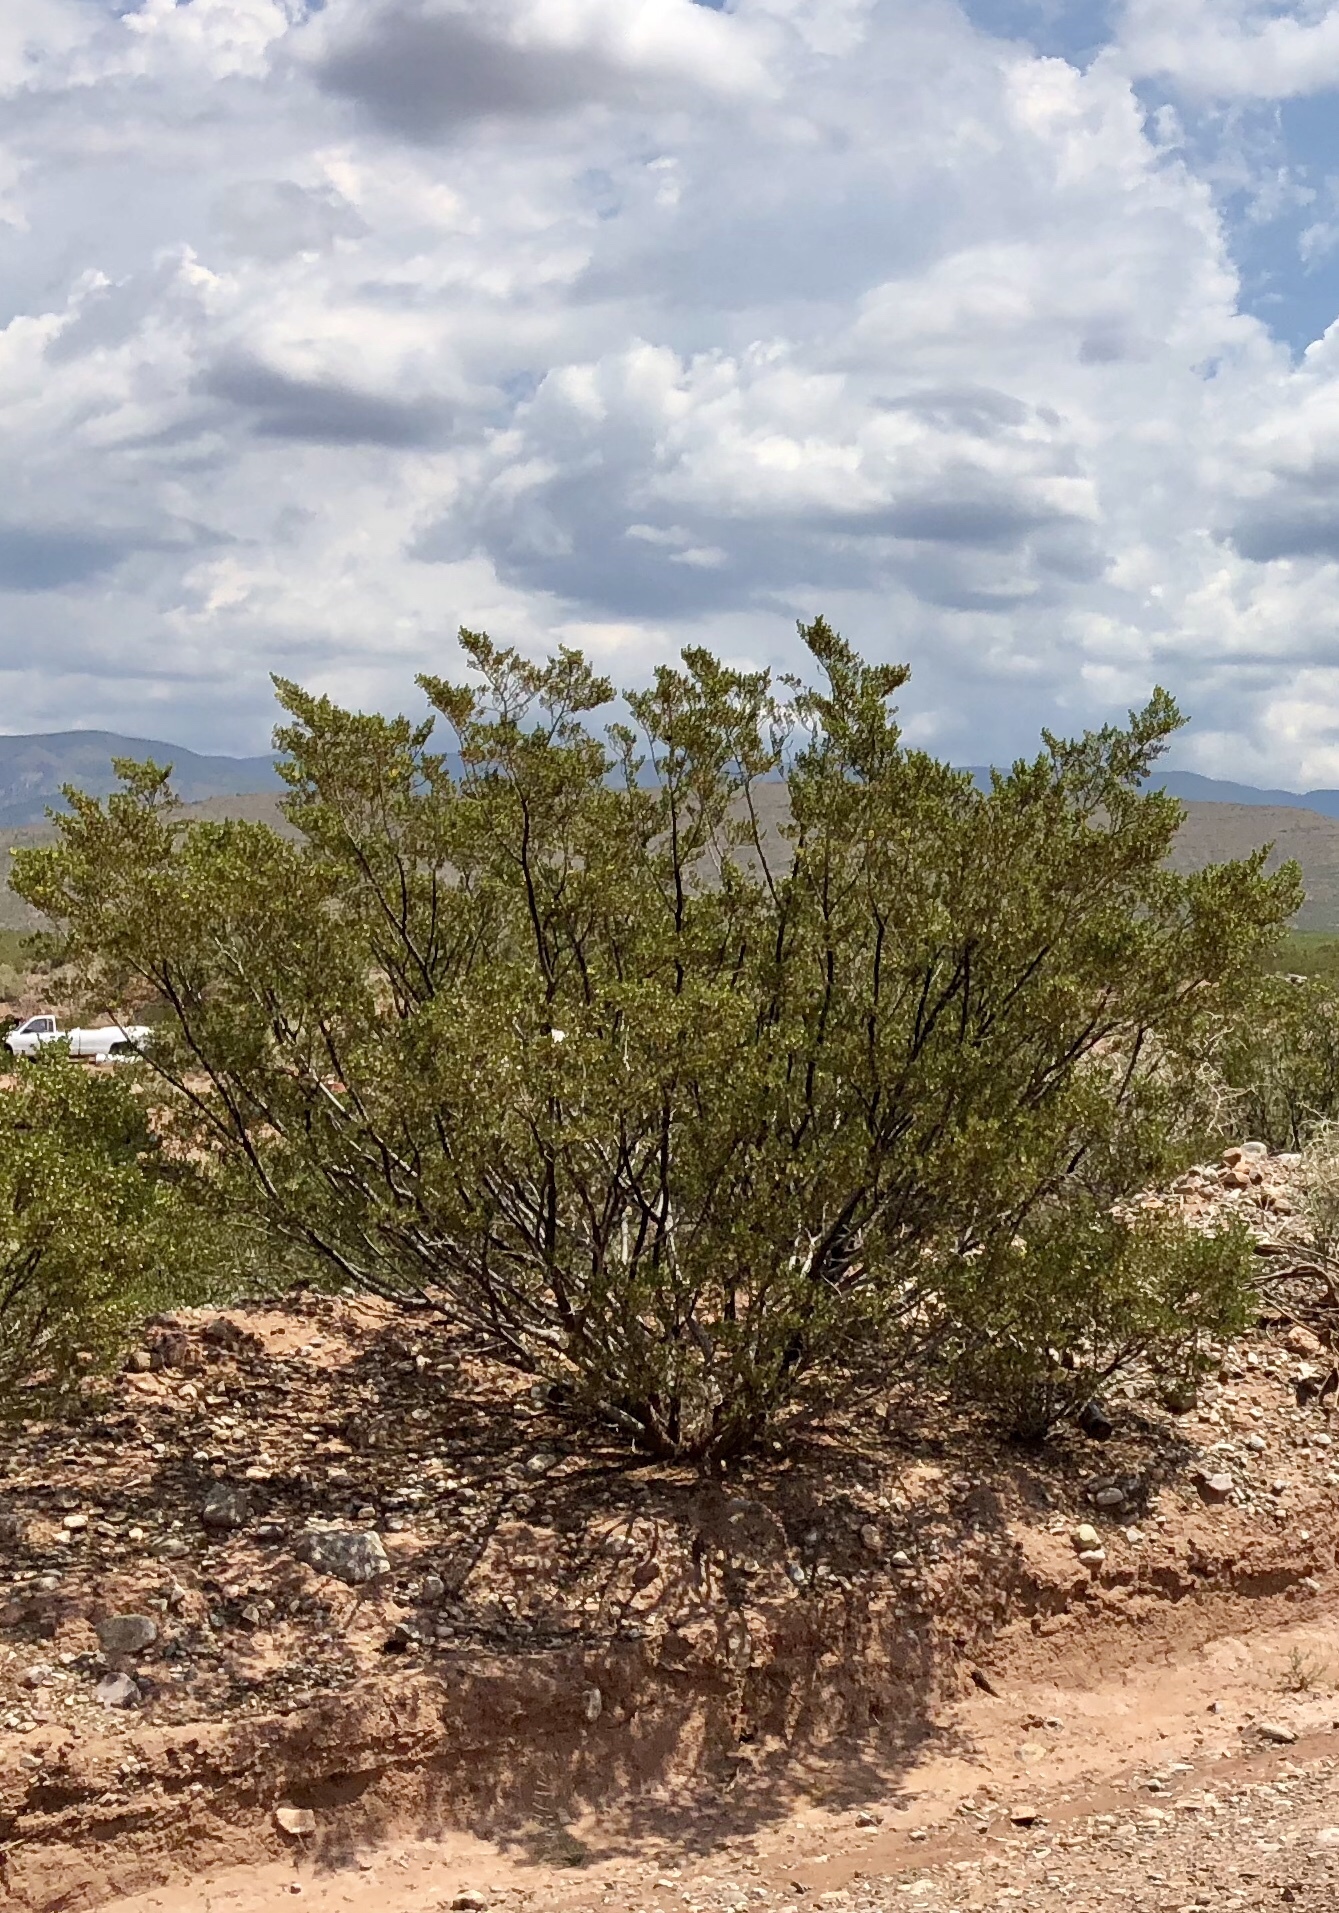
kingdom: Plantae
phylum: Tracheophyta
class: Magnoliopsida
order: Zygophyllales
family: Zygophyllaceae
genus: Larrea
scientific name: Larrea tridentata
